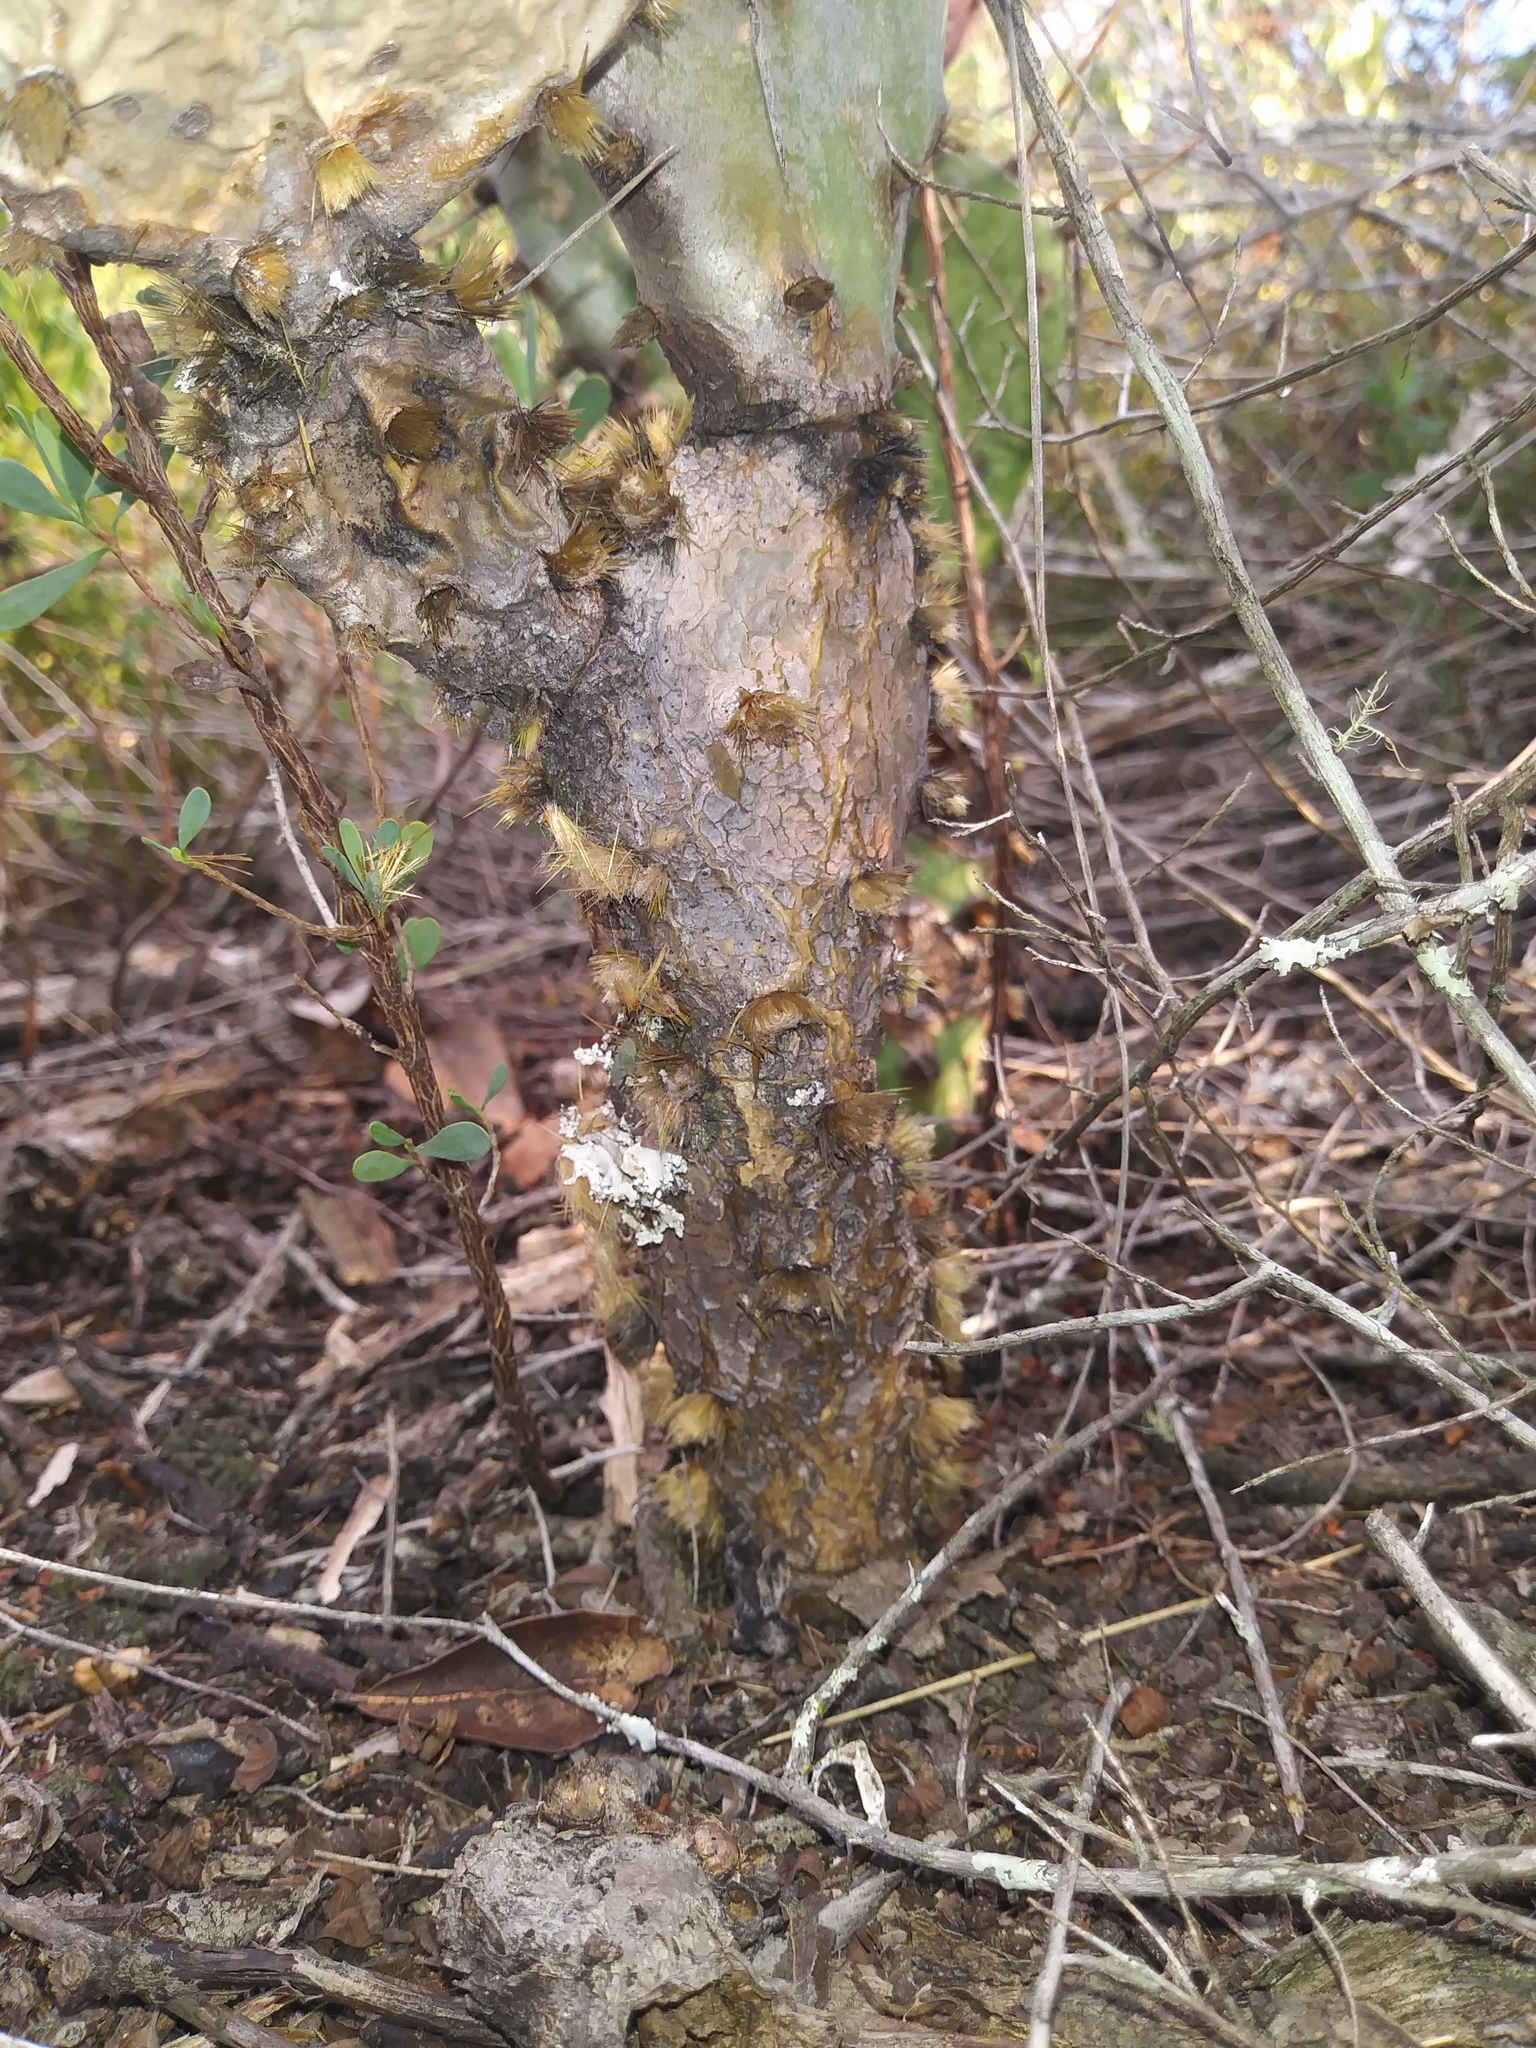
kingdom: Plantae
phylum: Tracheophyta
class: Magnoliopsida
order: Caryophyllales
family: Cactaceae
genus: Opuntia
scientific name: Opuntia austrina
